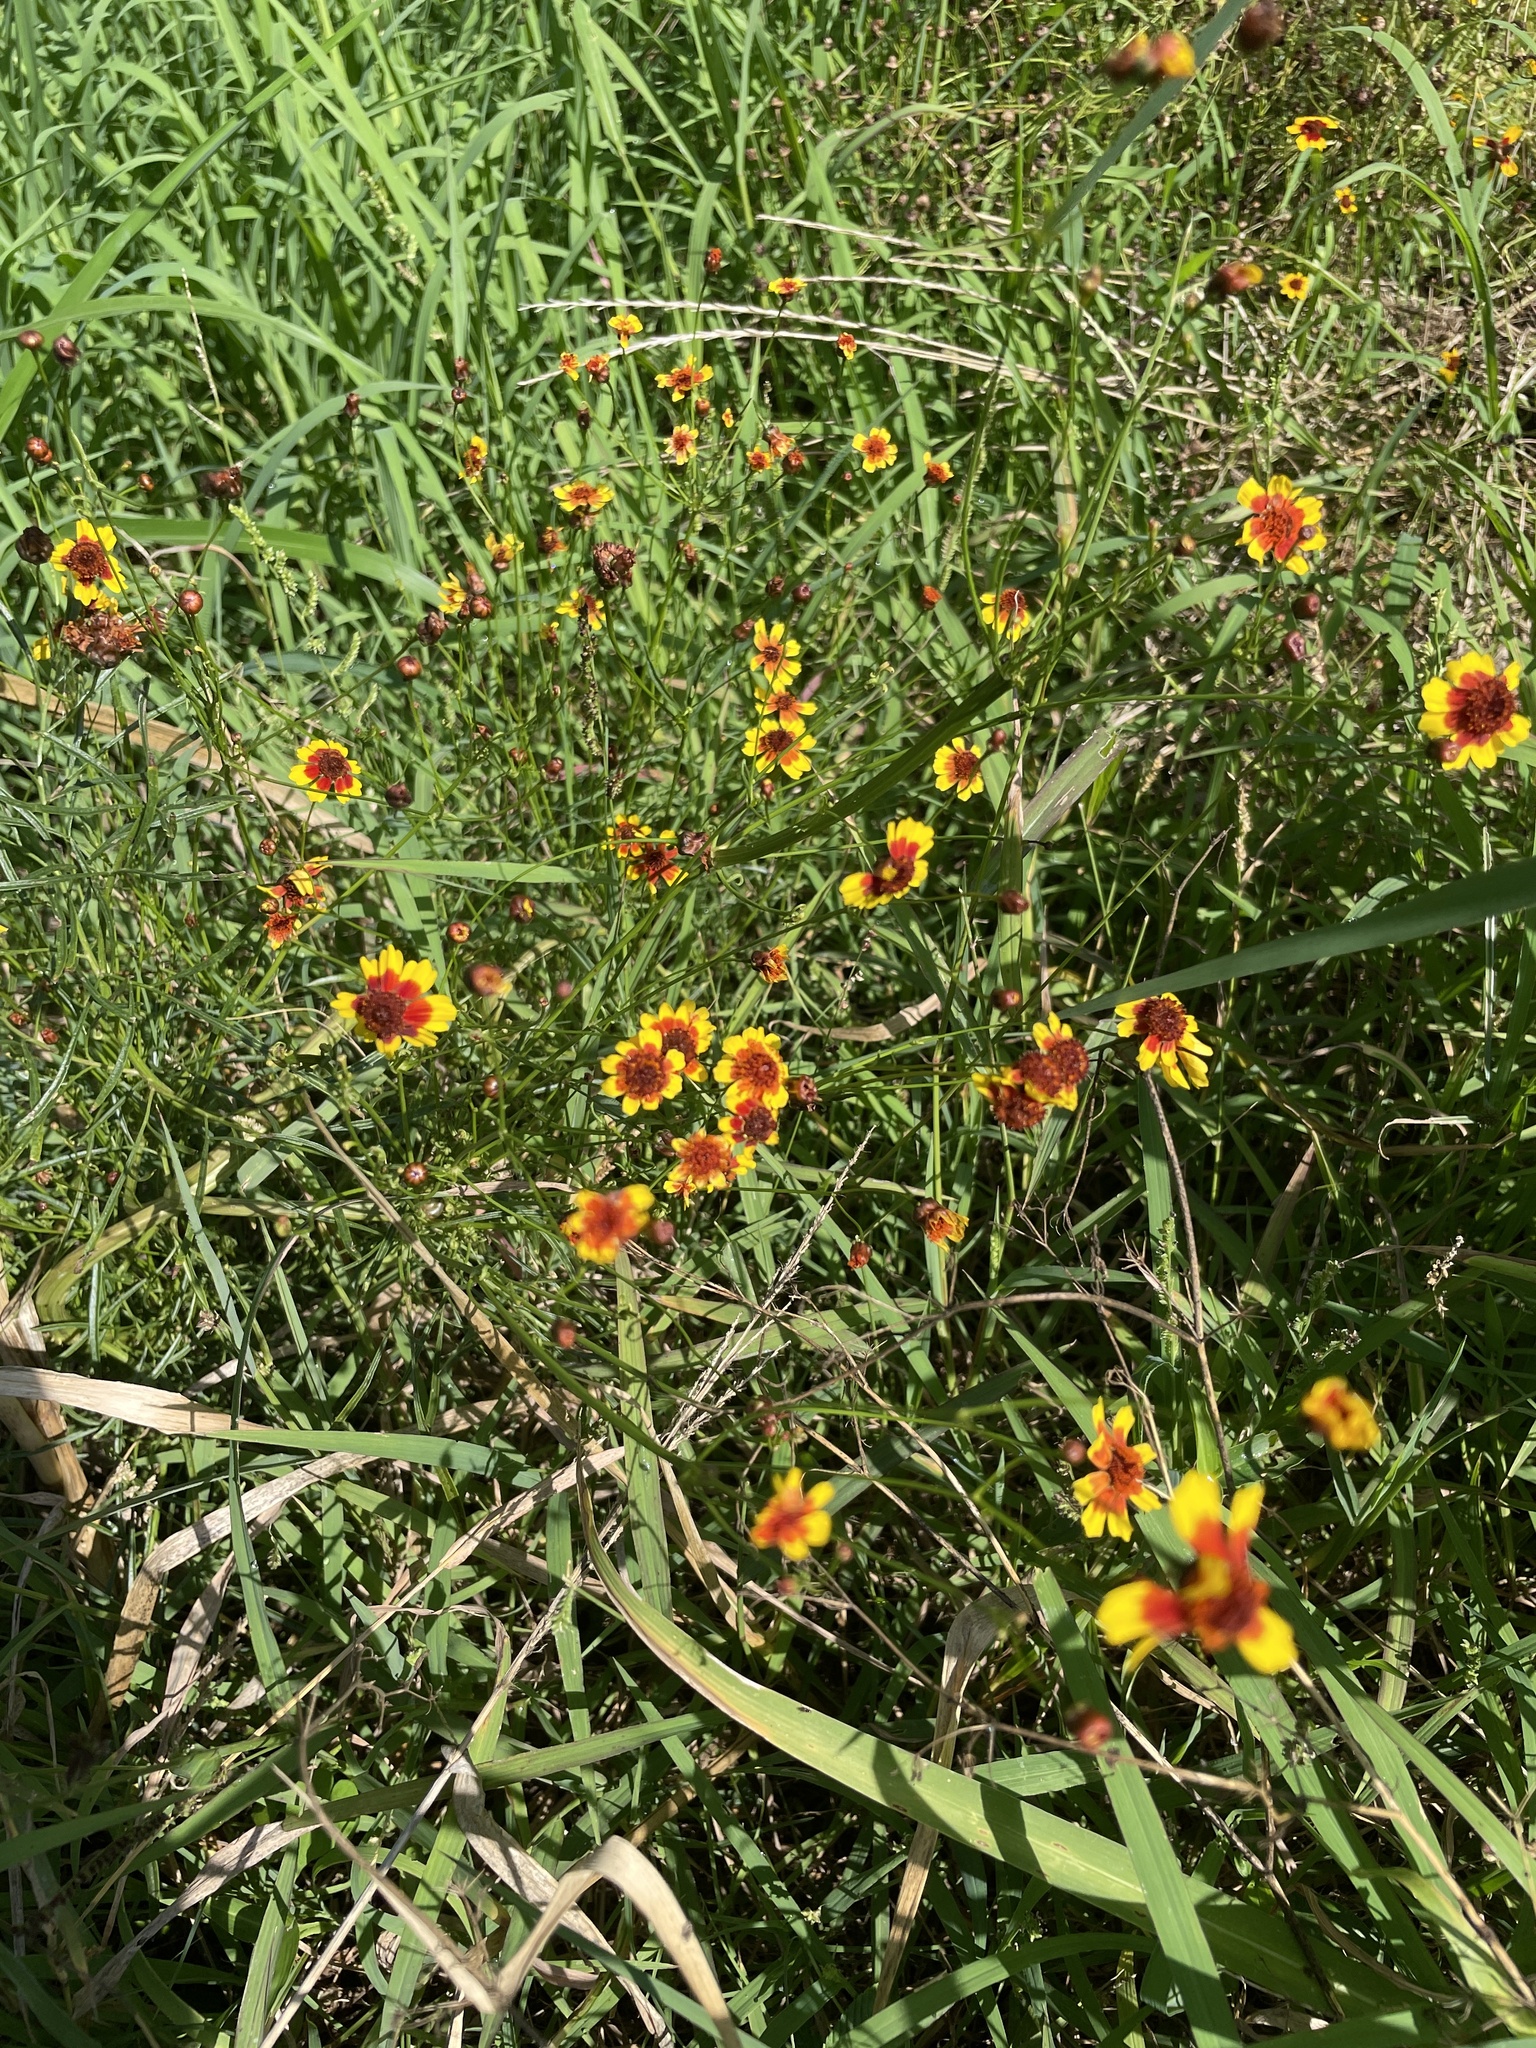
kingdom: Plantae
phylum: Tracheophyta
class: Magnoliopsida
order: Asterales
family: Asteraceae
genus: Coreopsis
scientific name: Coreopsis tinctoria
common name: Garden tickseed
